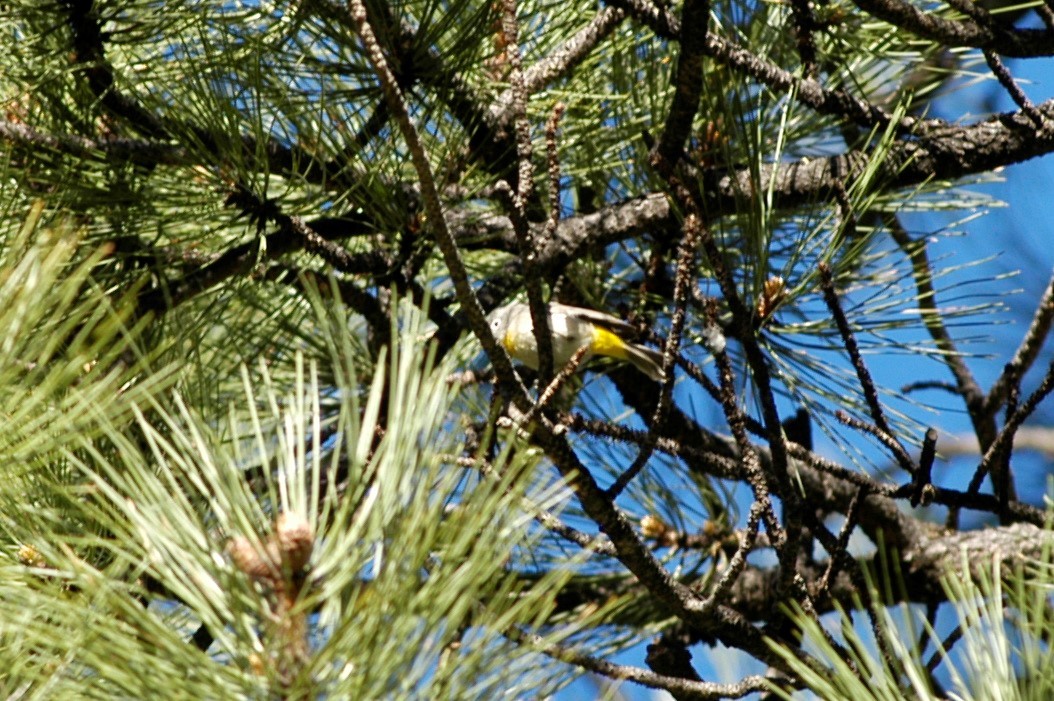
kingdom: Animalia
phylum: Chordata
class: Aves
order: Passeriformes
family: Parulidae
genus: Leiothlypis
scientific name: Leiothlypis virginiae
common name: Virginia's warbler
